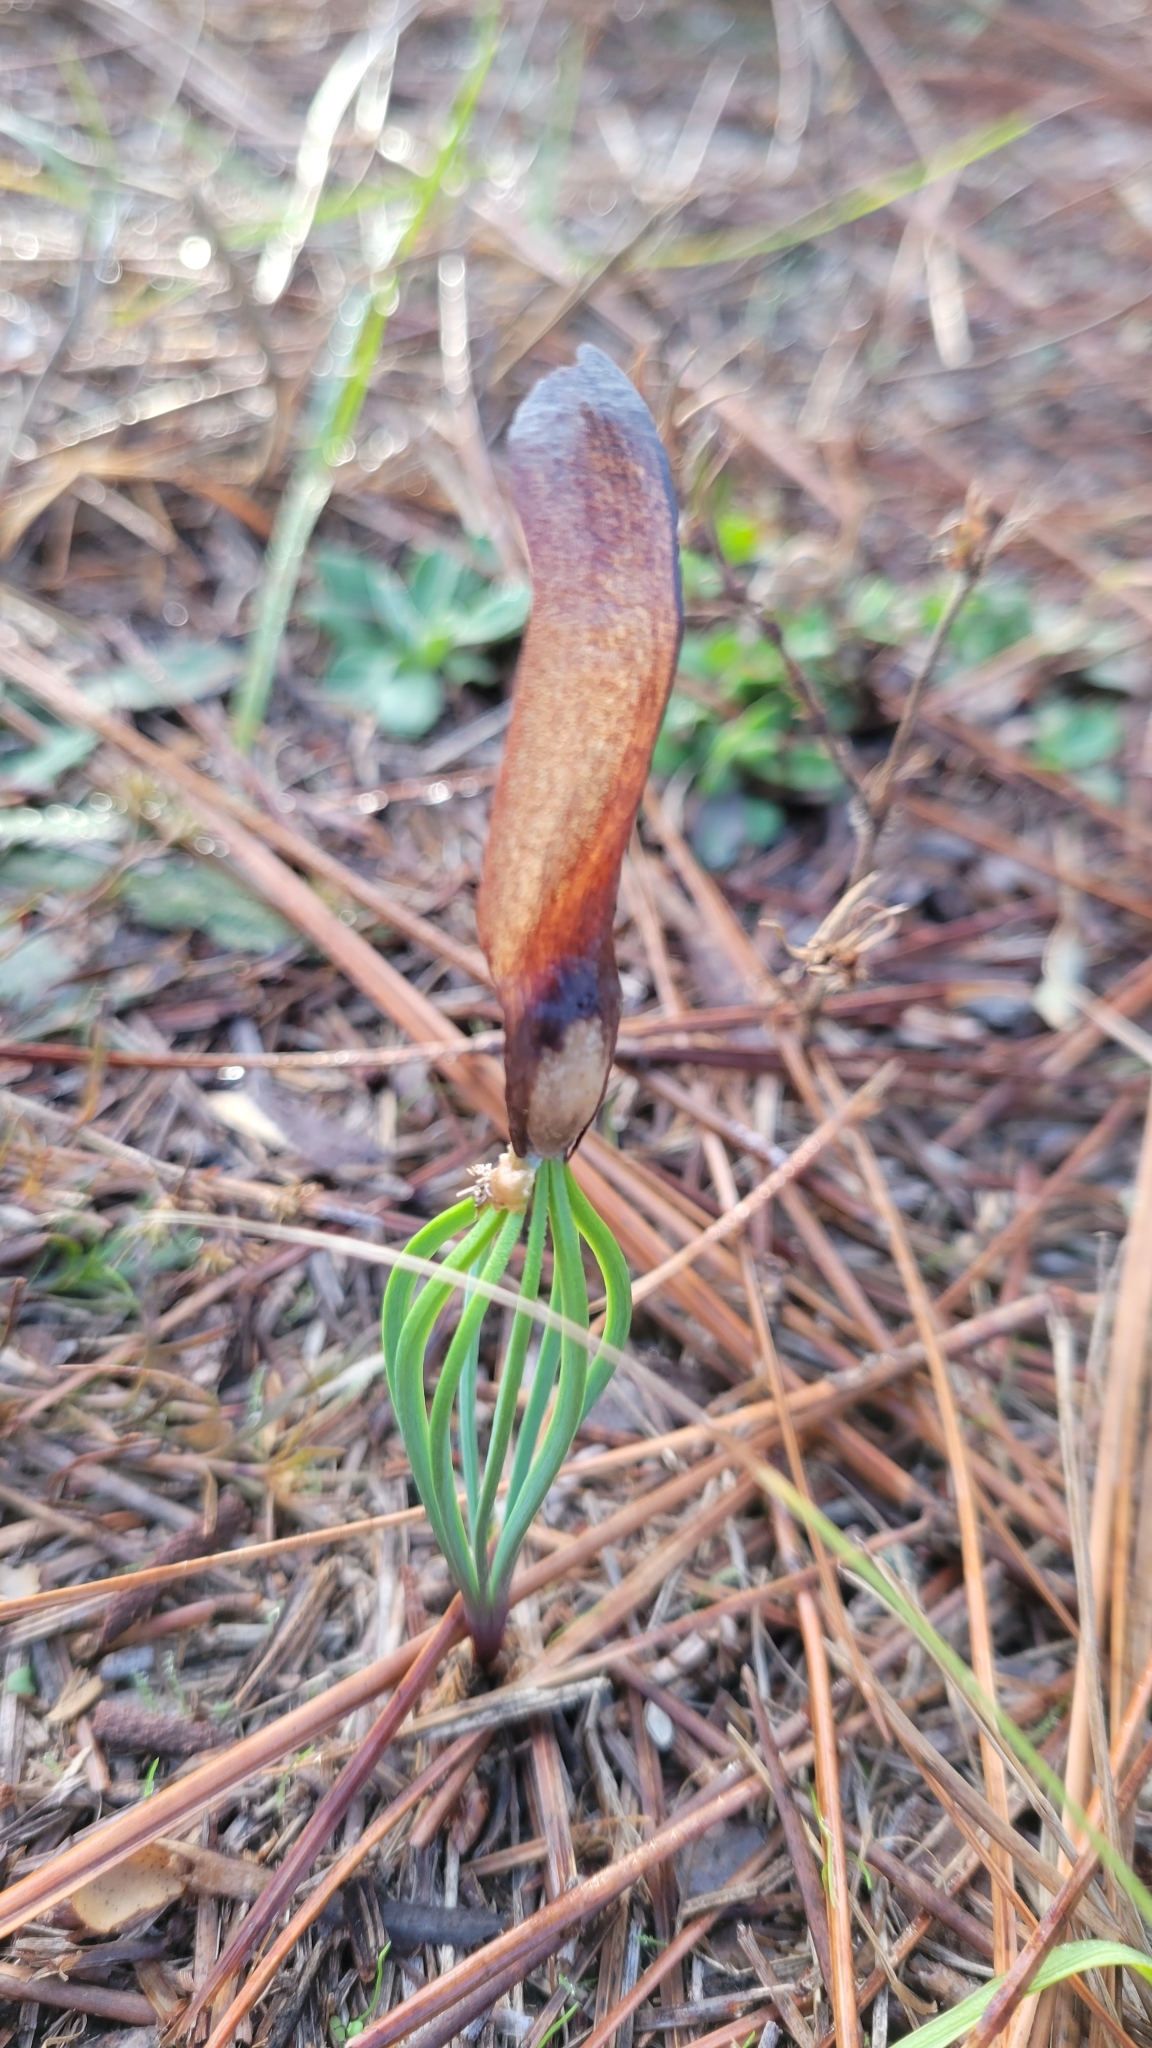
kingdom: Plantae
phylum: Tracheophyta
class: Pinopsida
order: Pinales
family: Pinaceae
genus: Pinus
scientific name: Pinus palustris
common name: Longleaf pine
